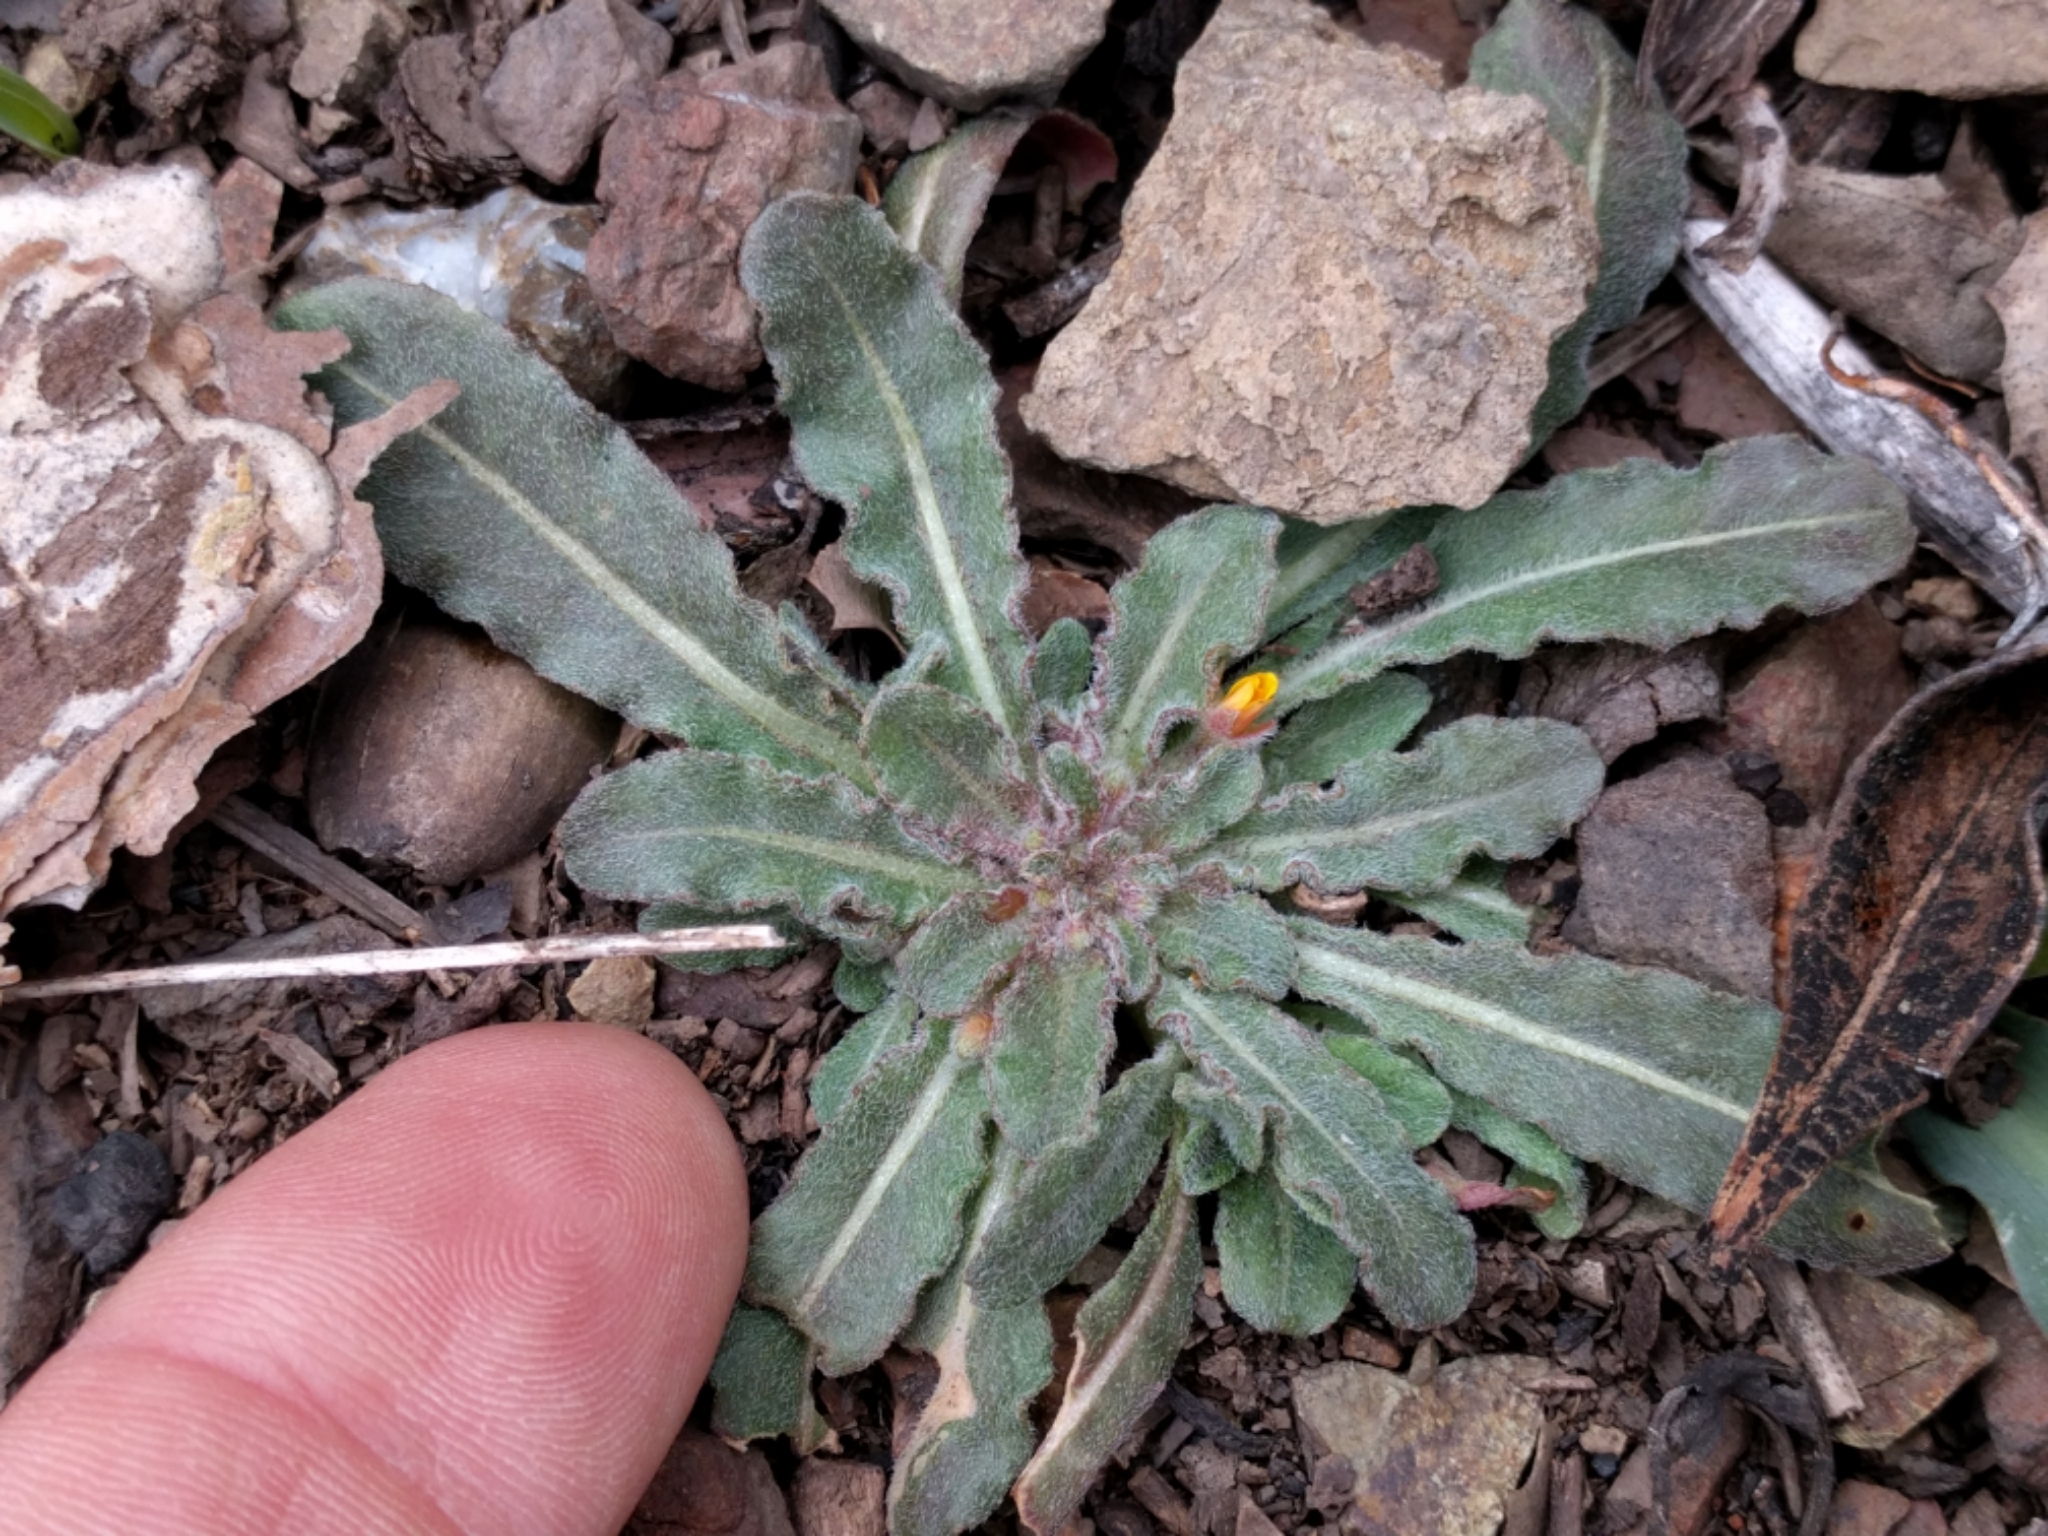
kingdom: Plantae
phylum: Tracheophyta
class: Magnoliopsida
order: Myrtales
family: Onagraceae
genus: Camissoniopsis
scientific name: Camissoniopsis micrantha
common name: Miniature suncup
